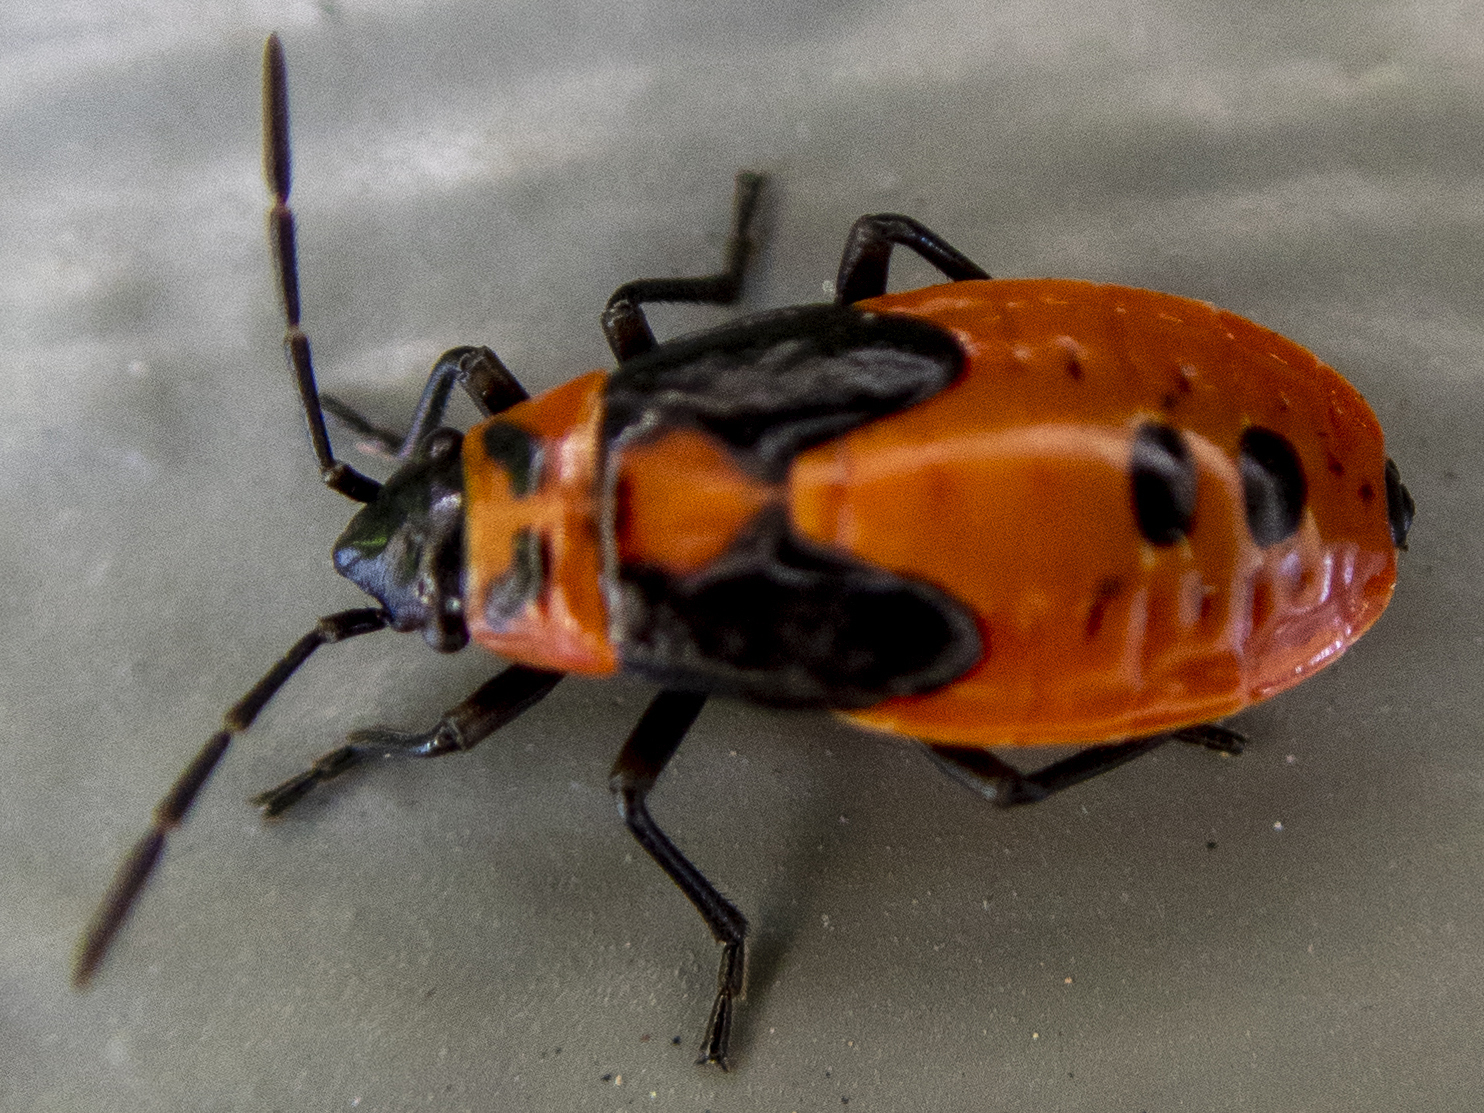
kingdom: Animalia
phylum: Arthropoda
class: Insecta
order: Hemiptera
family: Lygaeidae
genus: Lygaeus
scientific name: Lygaeus turcicus
